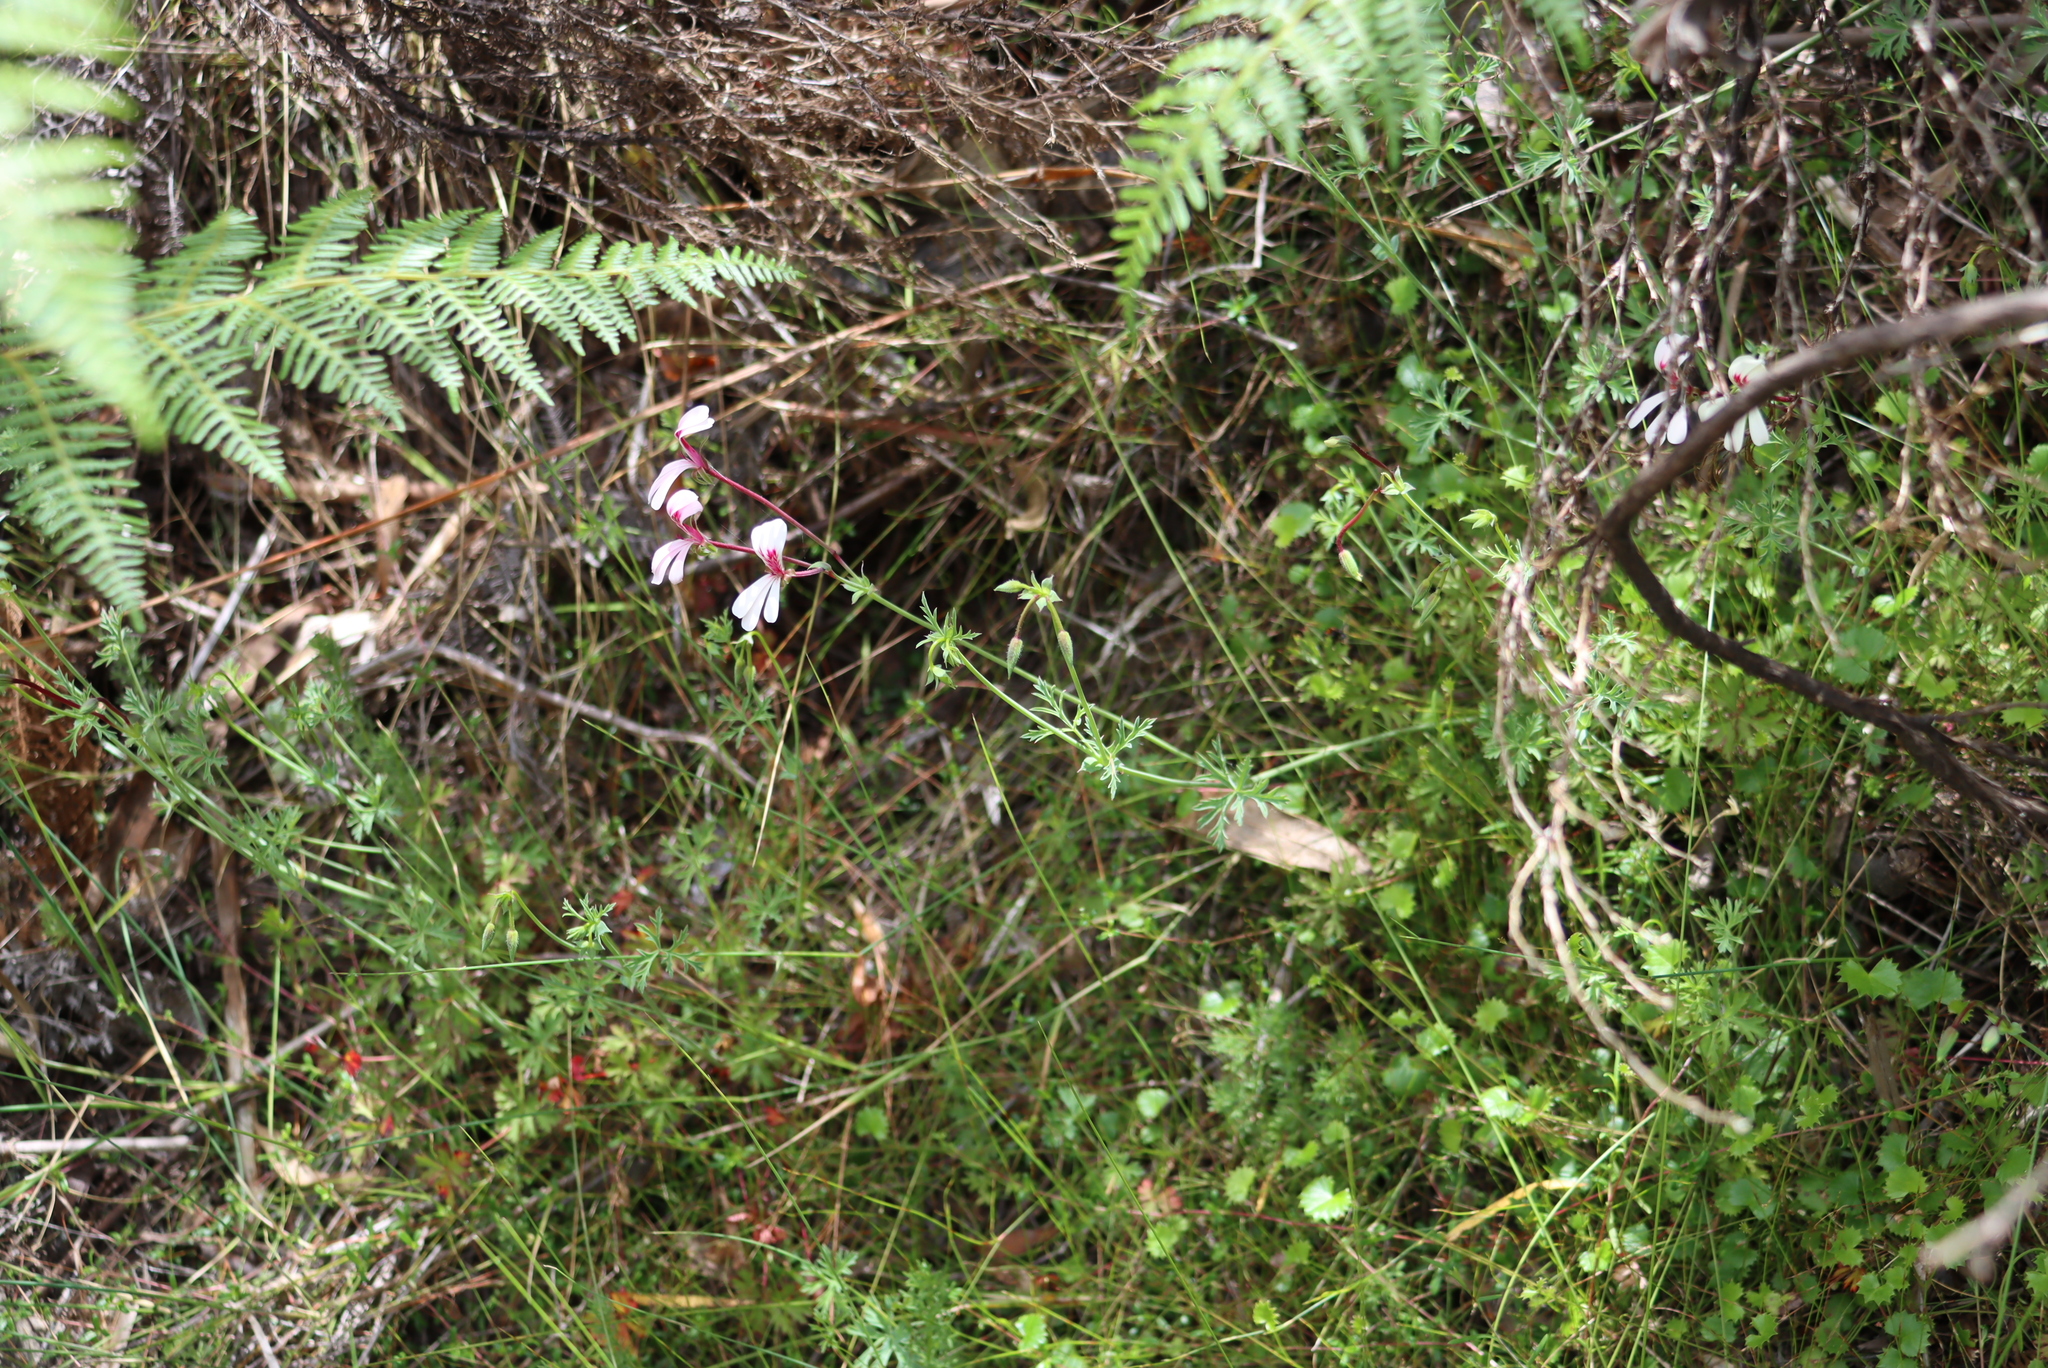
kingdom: Plantae
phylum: Tracheophyta
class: Magnoliopsida
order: Geraniales
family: Geraniaceae
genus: Pelargonium
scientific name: Pelargonium patulum
